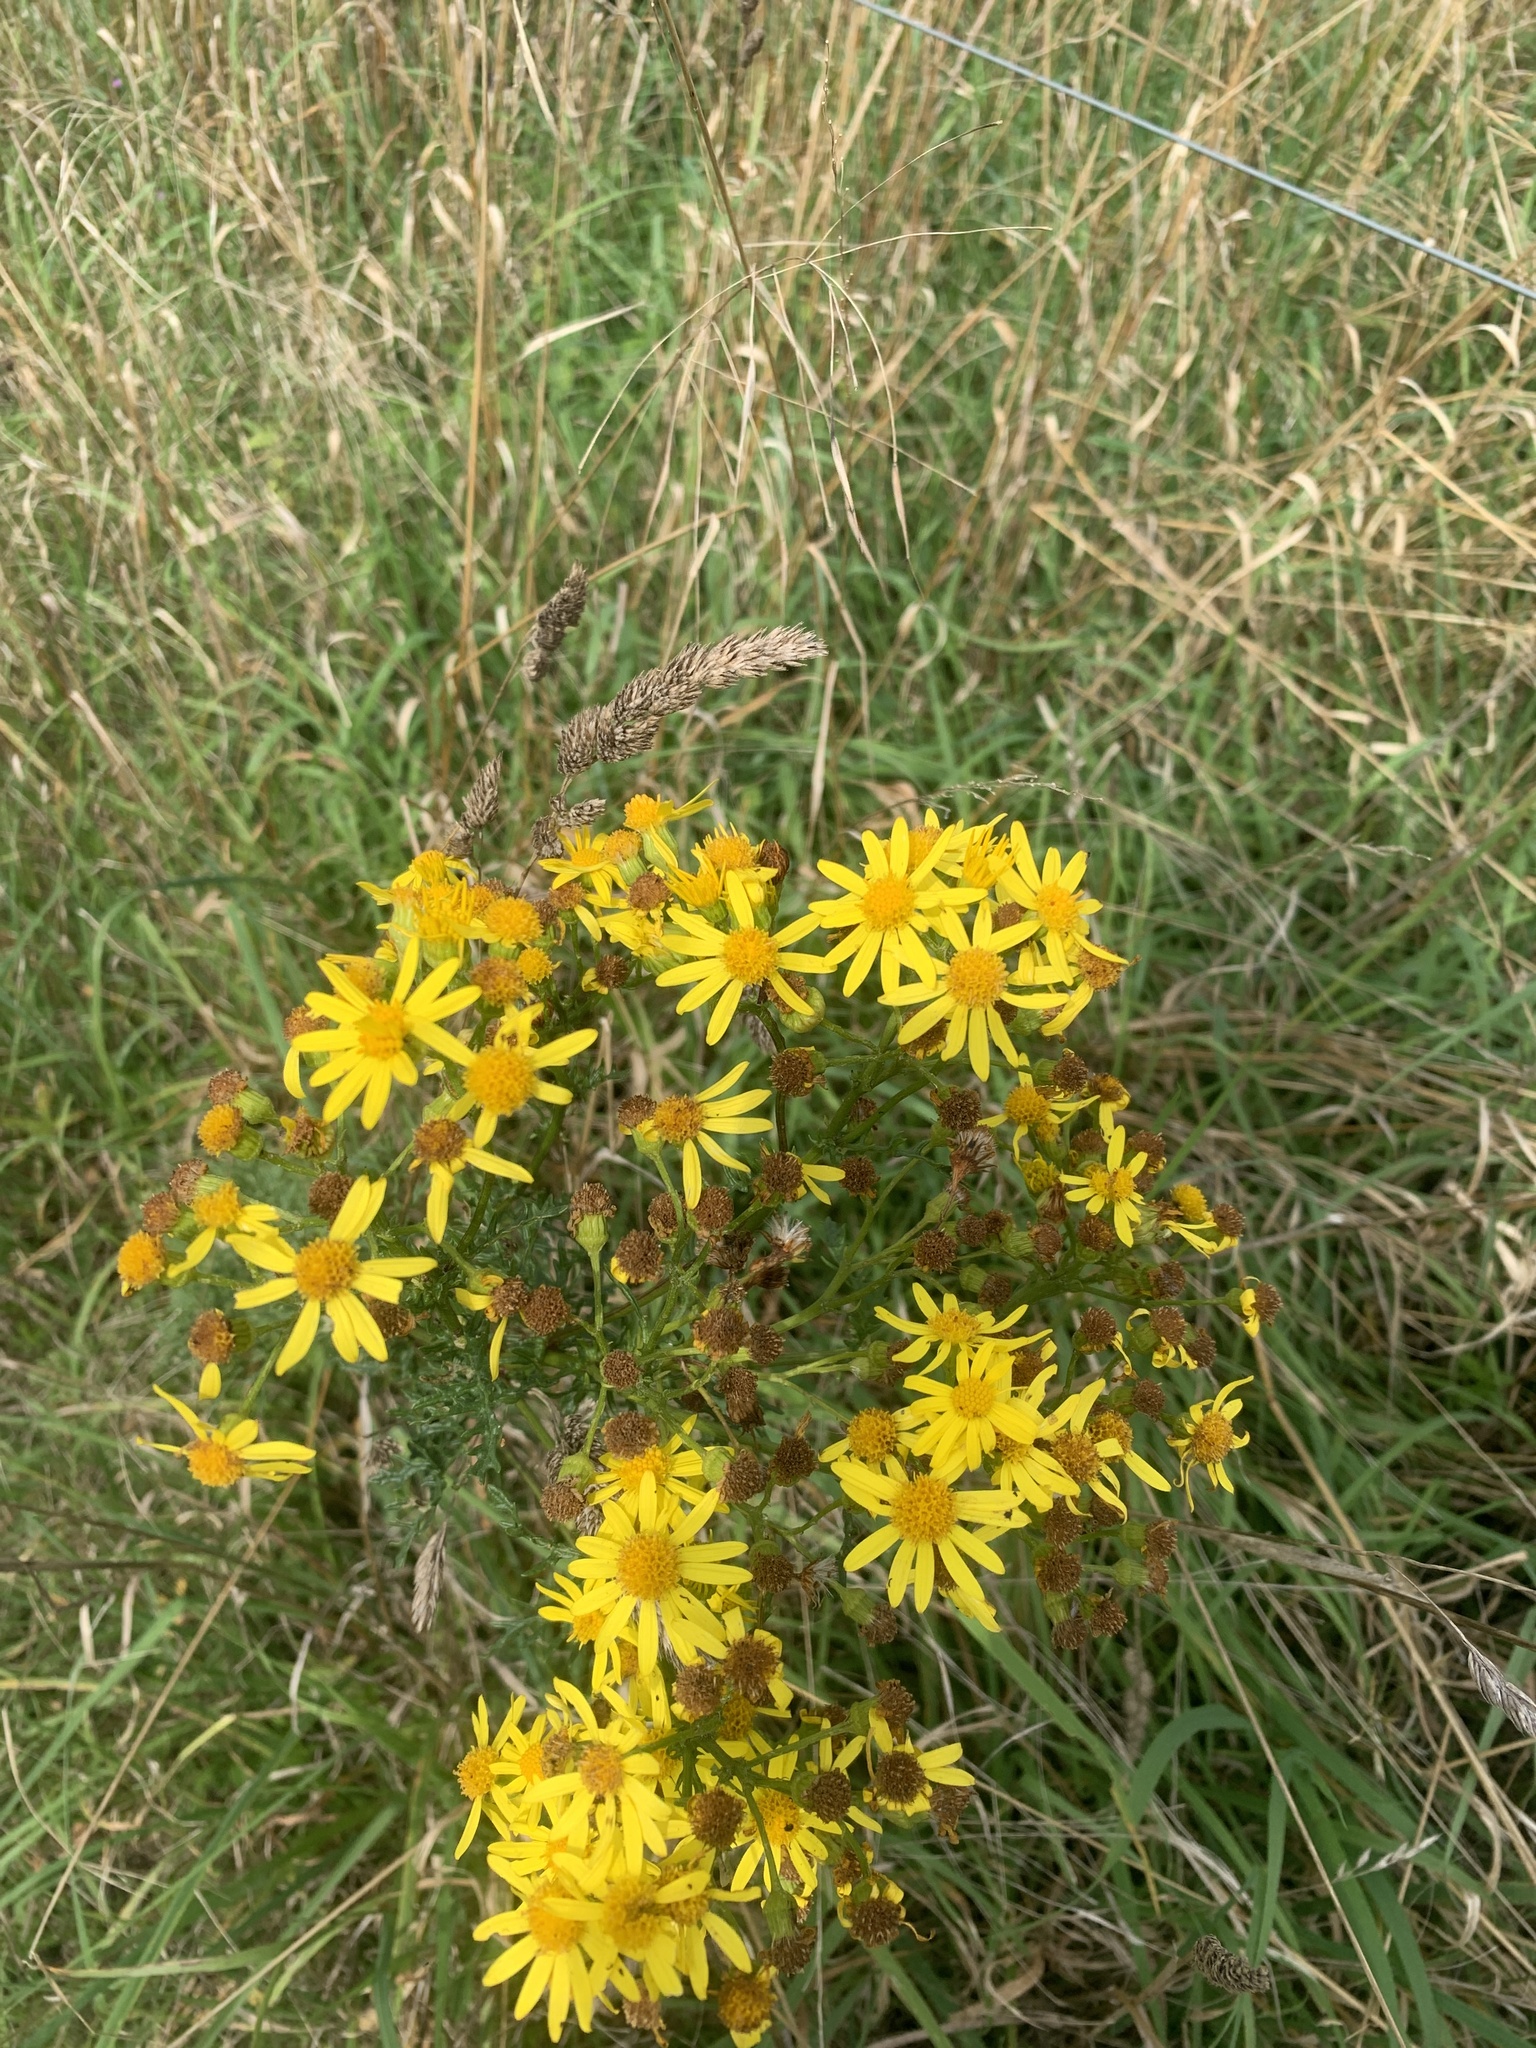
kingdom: Plantae
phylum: Tracheophyta
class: Magnoliopsida
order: Asterales
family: Asteraceae
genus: Jacobaea
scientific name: Jacobaea vulgaris
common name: Stinking willie
